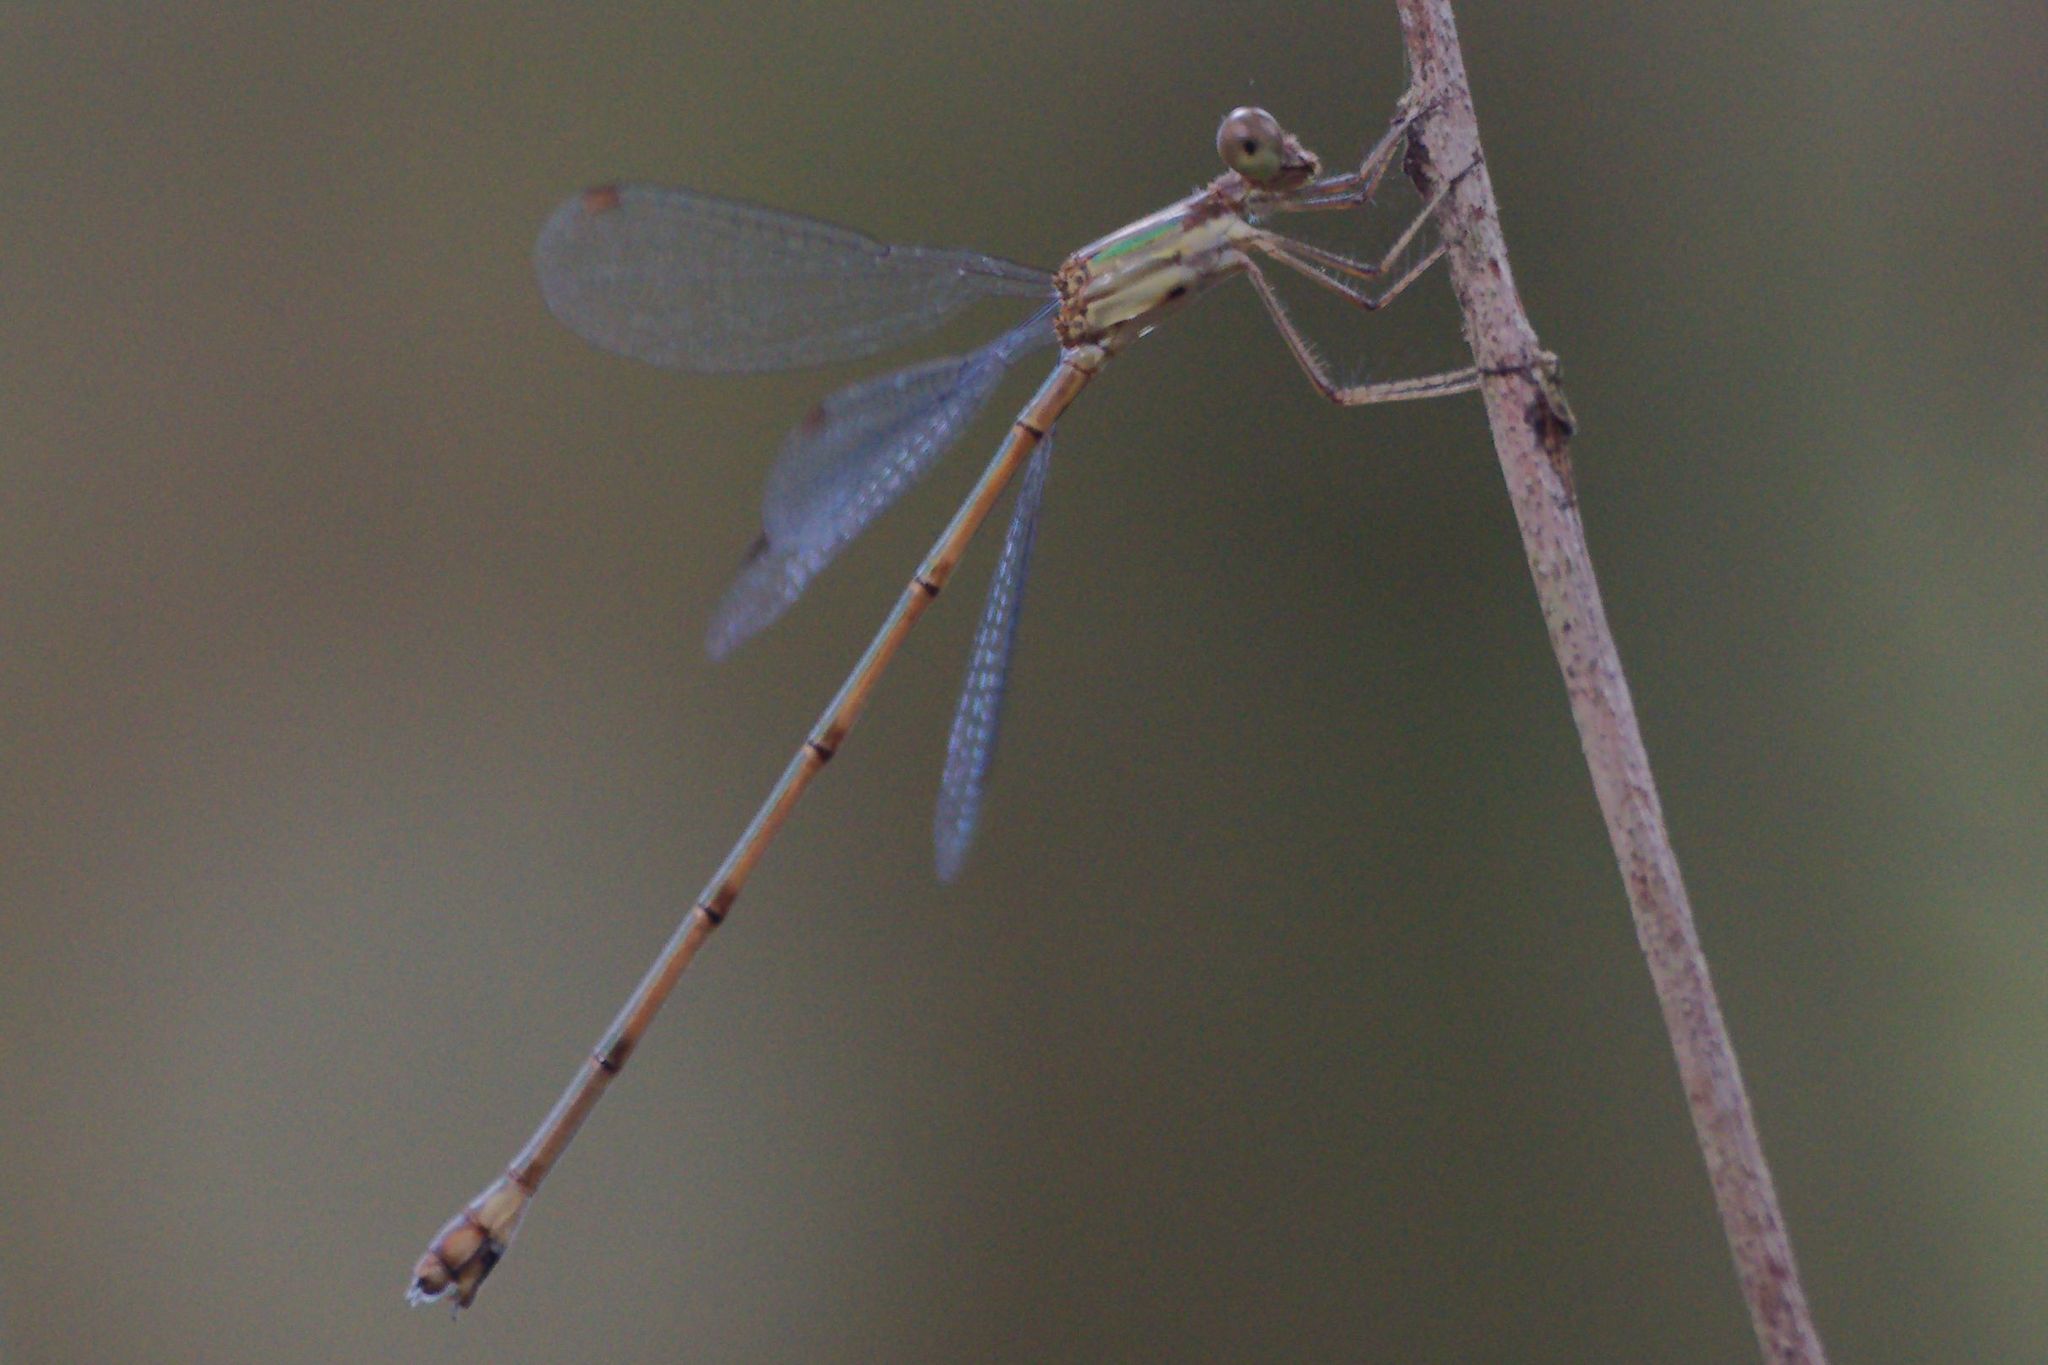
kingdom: Animalia
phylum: Arthropoda
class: Insecta
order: Odonata
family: Lestidae
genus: Lestes
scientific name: Lestes tenuatus
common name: Blue-striped spreadwing
